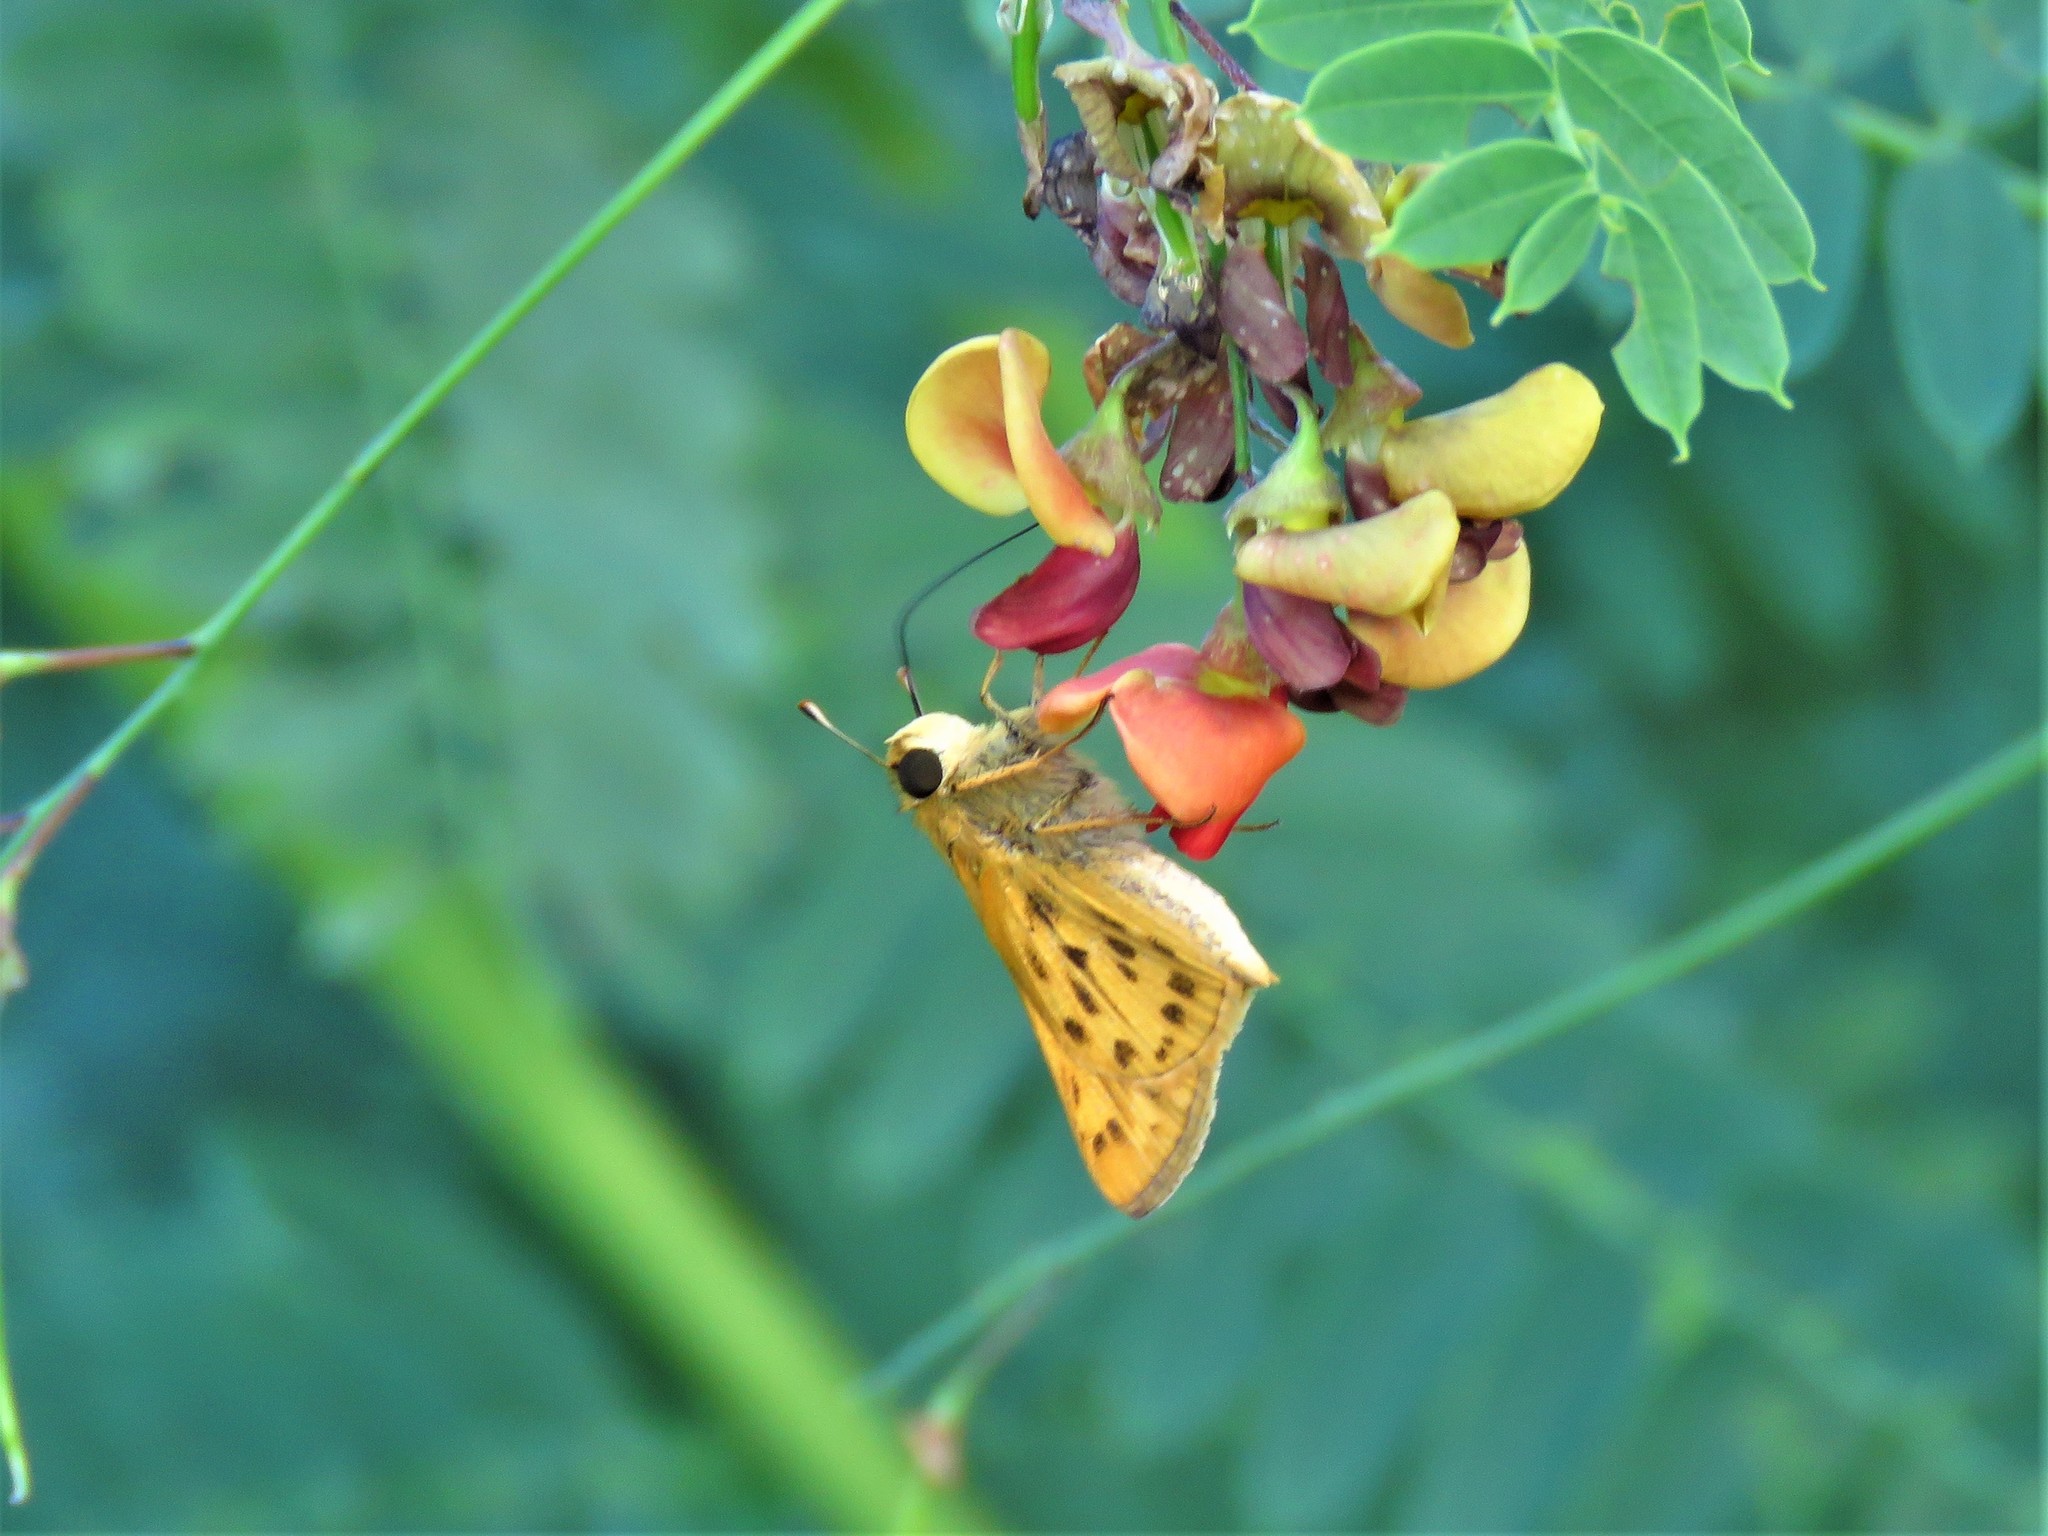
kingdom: Animalia
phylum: Arthropoda
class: Insecta
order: Lepidoptera
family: Hesperiidae
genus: Hylephila
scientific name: Hylephila phyleus
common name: Fiery skipper
